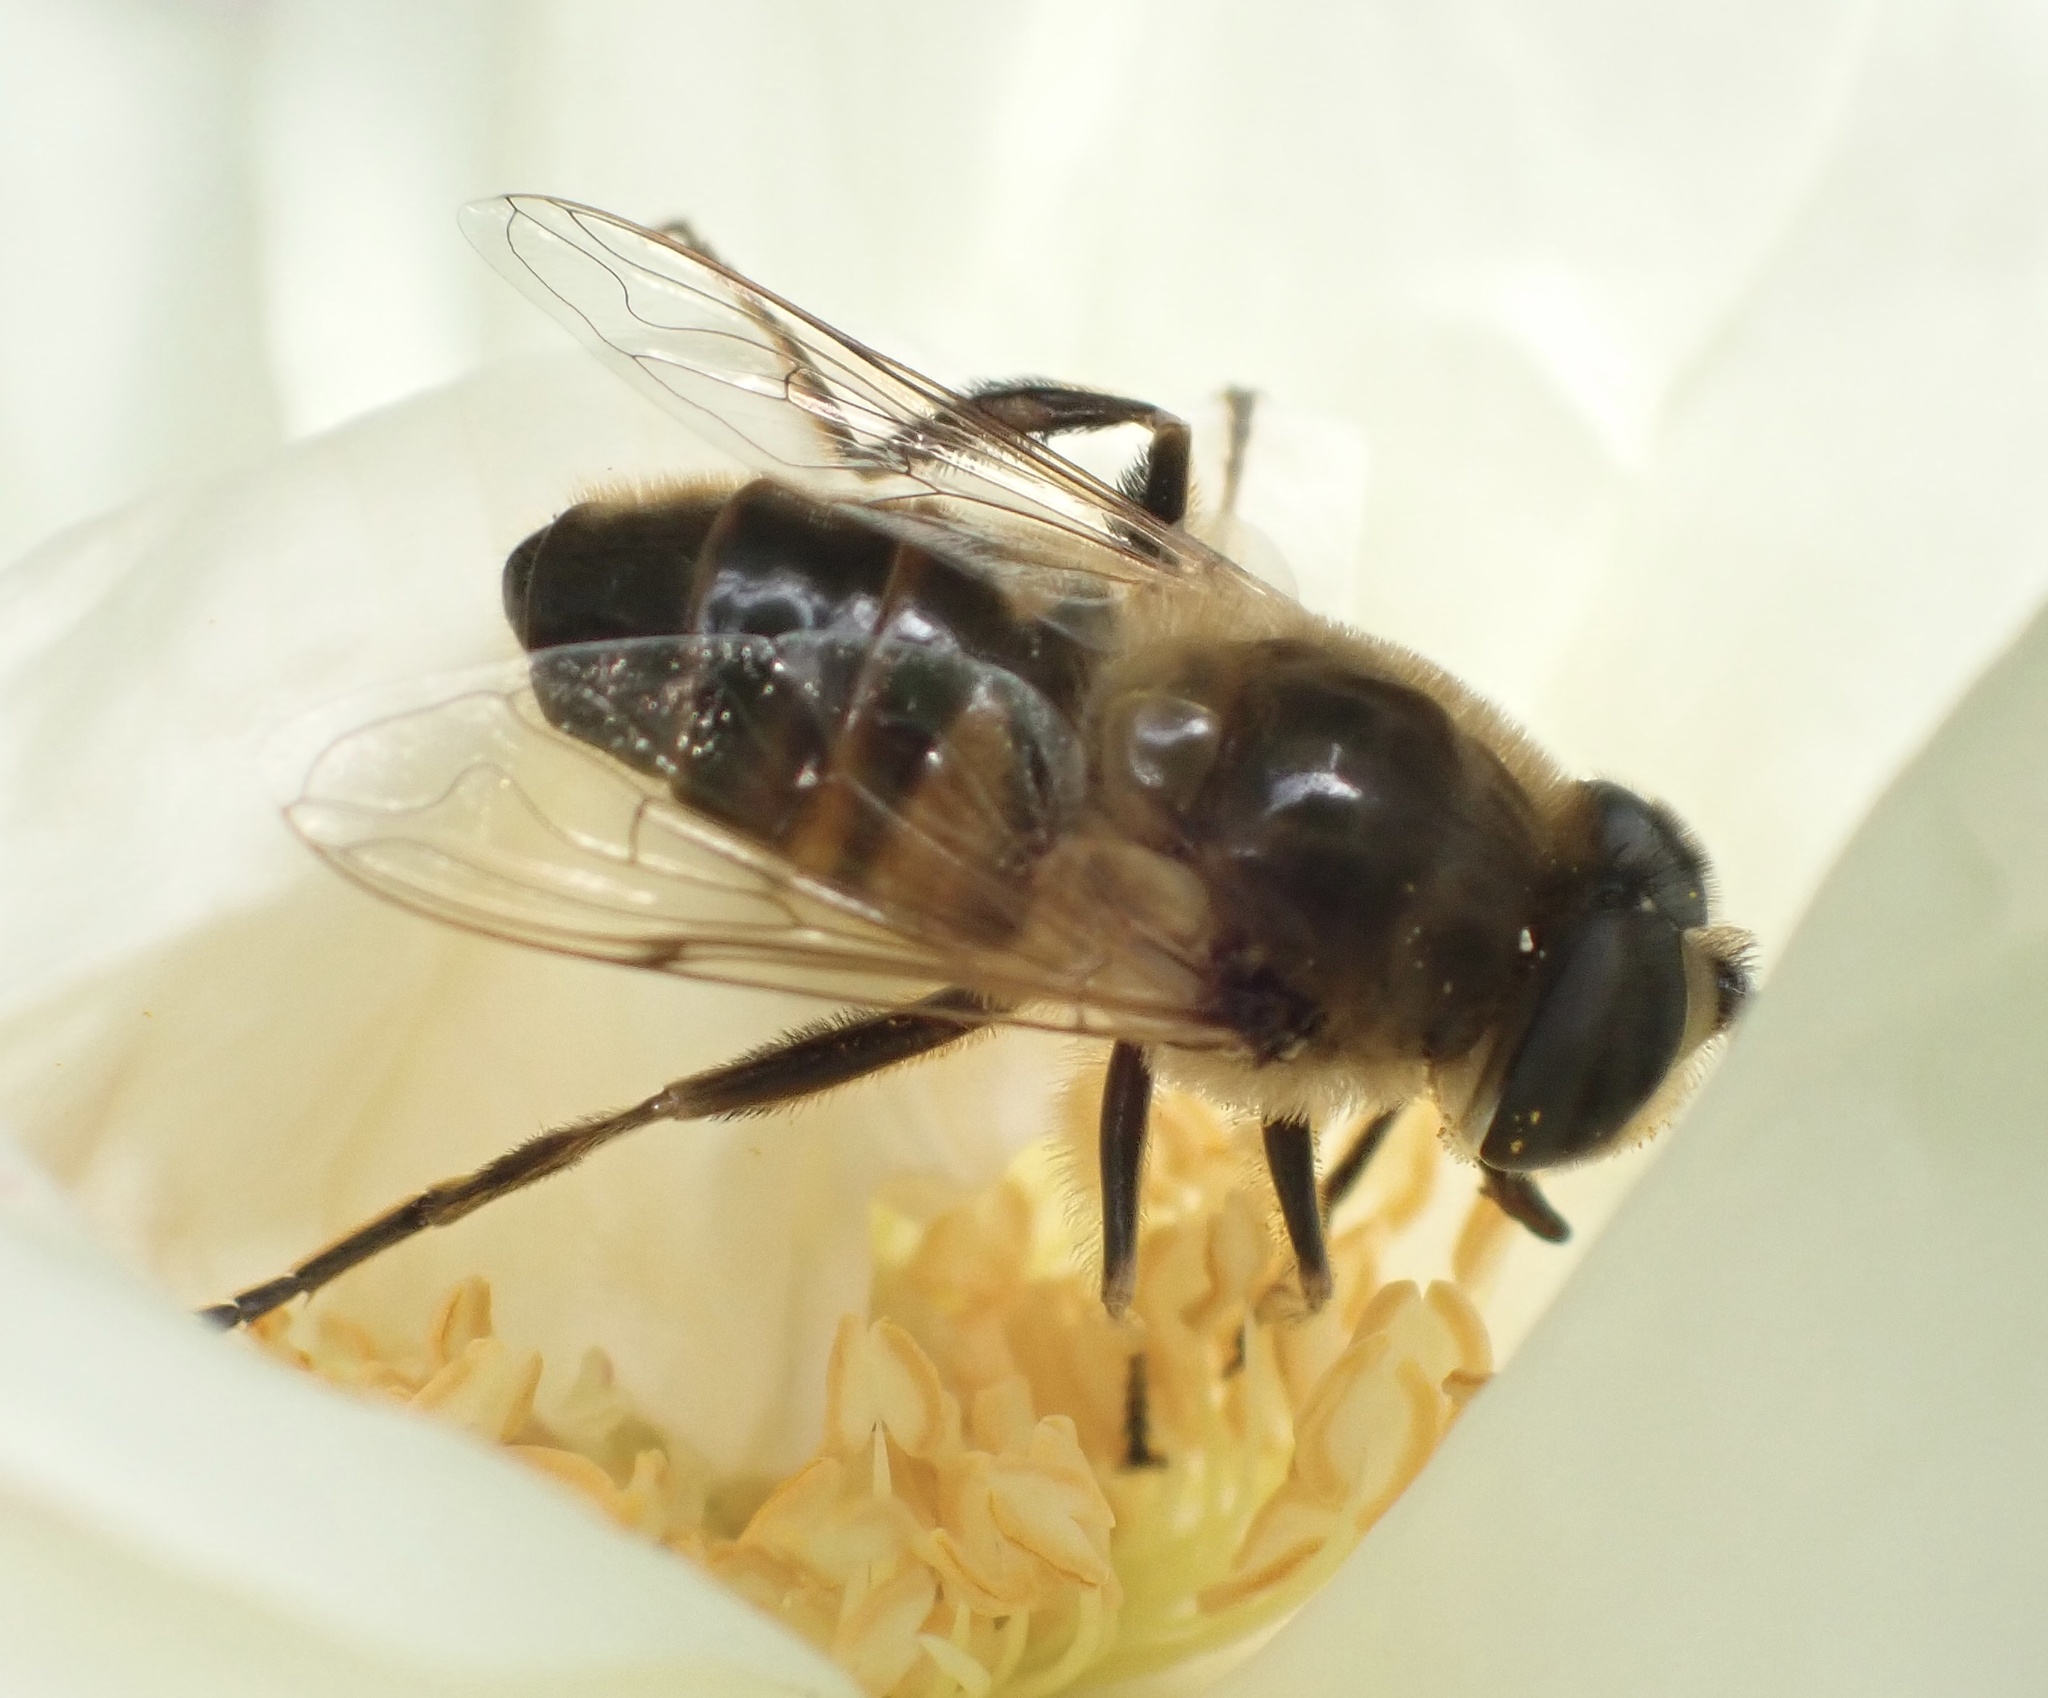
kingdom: Animalia
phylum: Arthropoda
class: Insecta
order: Diptera
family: Syrphidae
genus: Eristalis
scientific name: Eristalis nemorum
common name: Orange-spined drone fly
